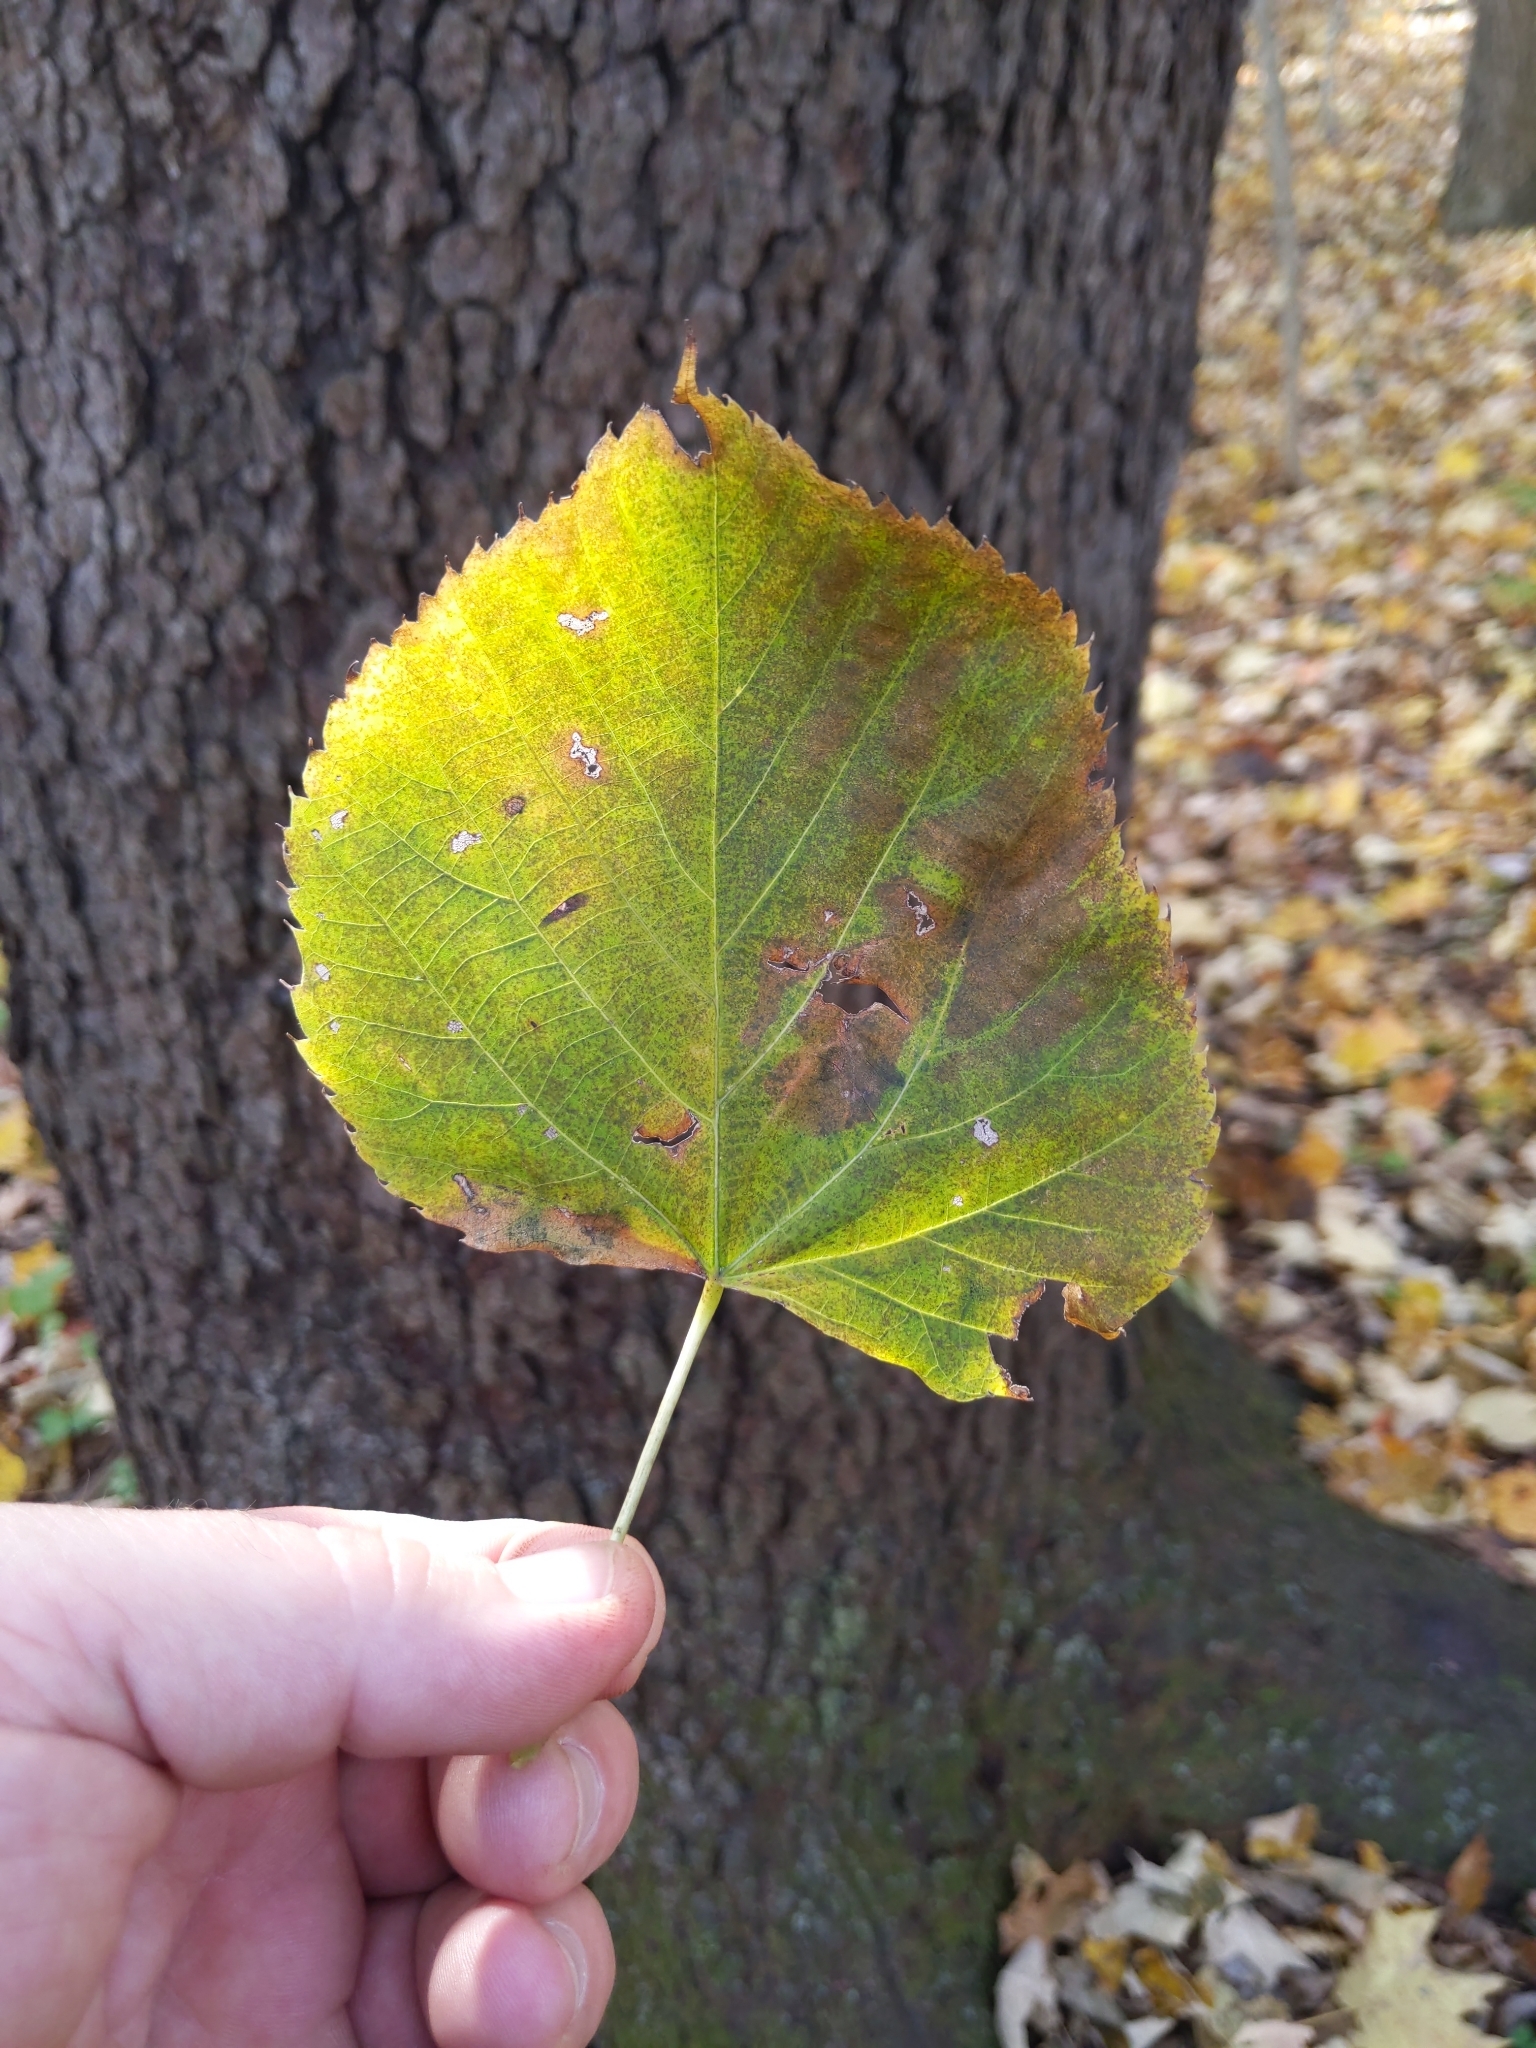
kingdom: Plantae
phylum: Tracheophyta
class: Magnoliopsida
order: Malvales
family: Malvaceae
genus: Tilia
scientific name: Tilia americana
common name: Basswood
